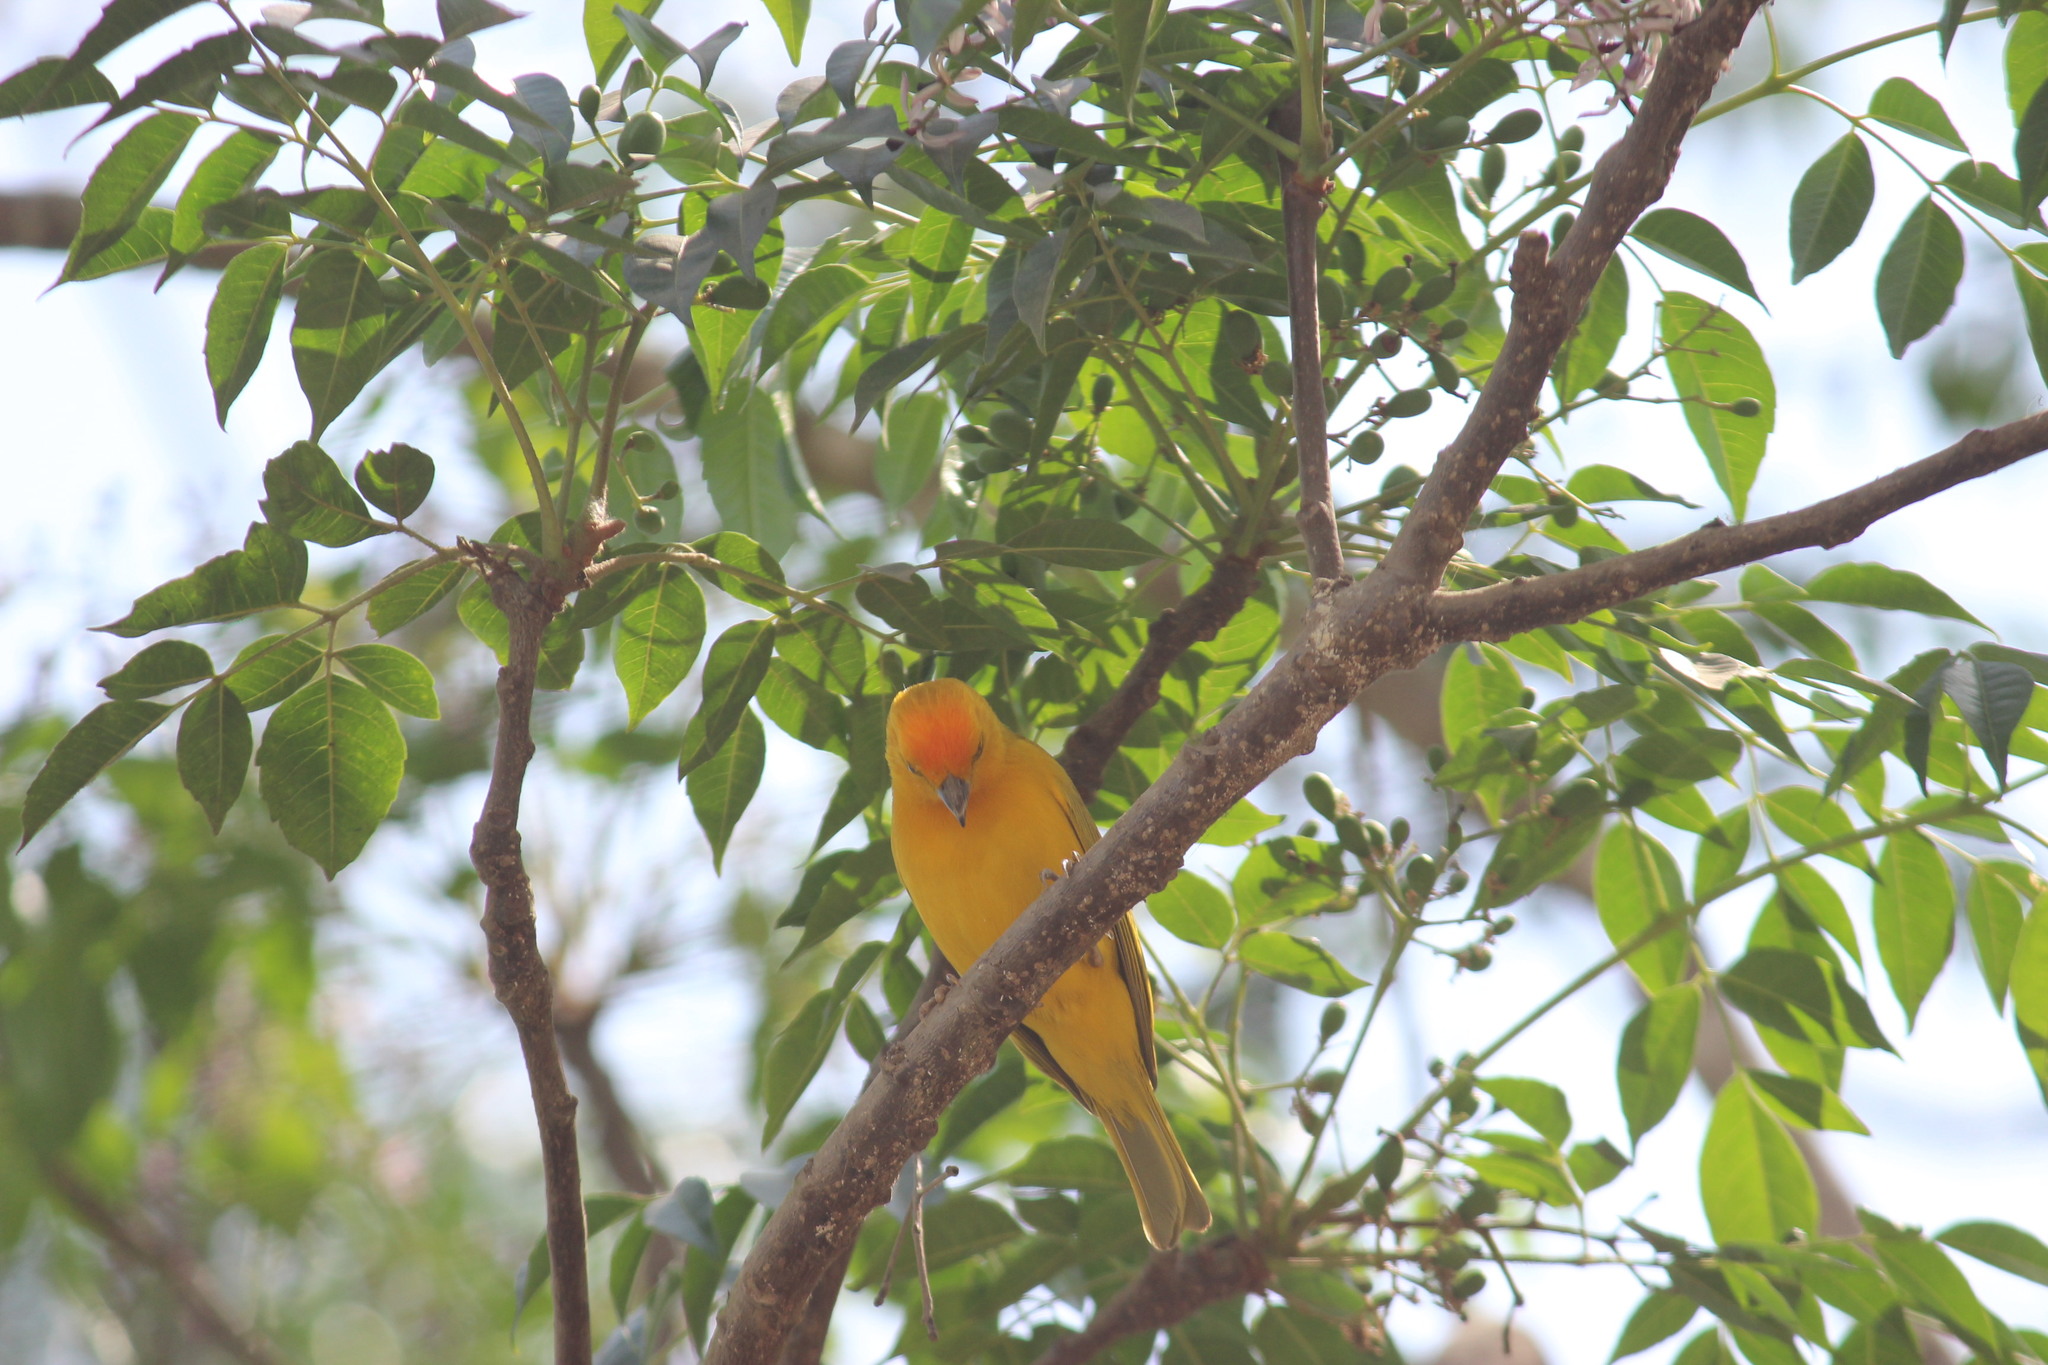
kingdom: Animalia
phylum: Chordata
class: Aves
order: Passeriformes
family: Thraupidae
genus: Sicalis
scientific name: Sicalis flaveola
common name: Saffron finch
